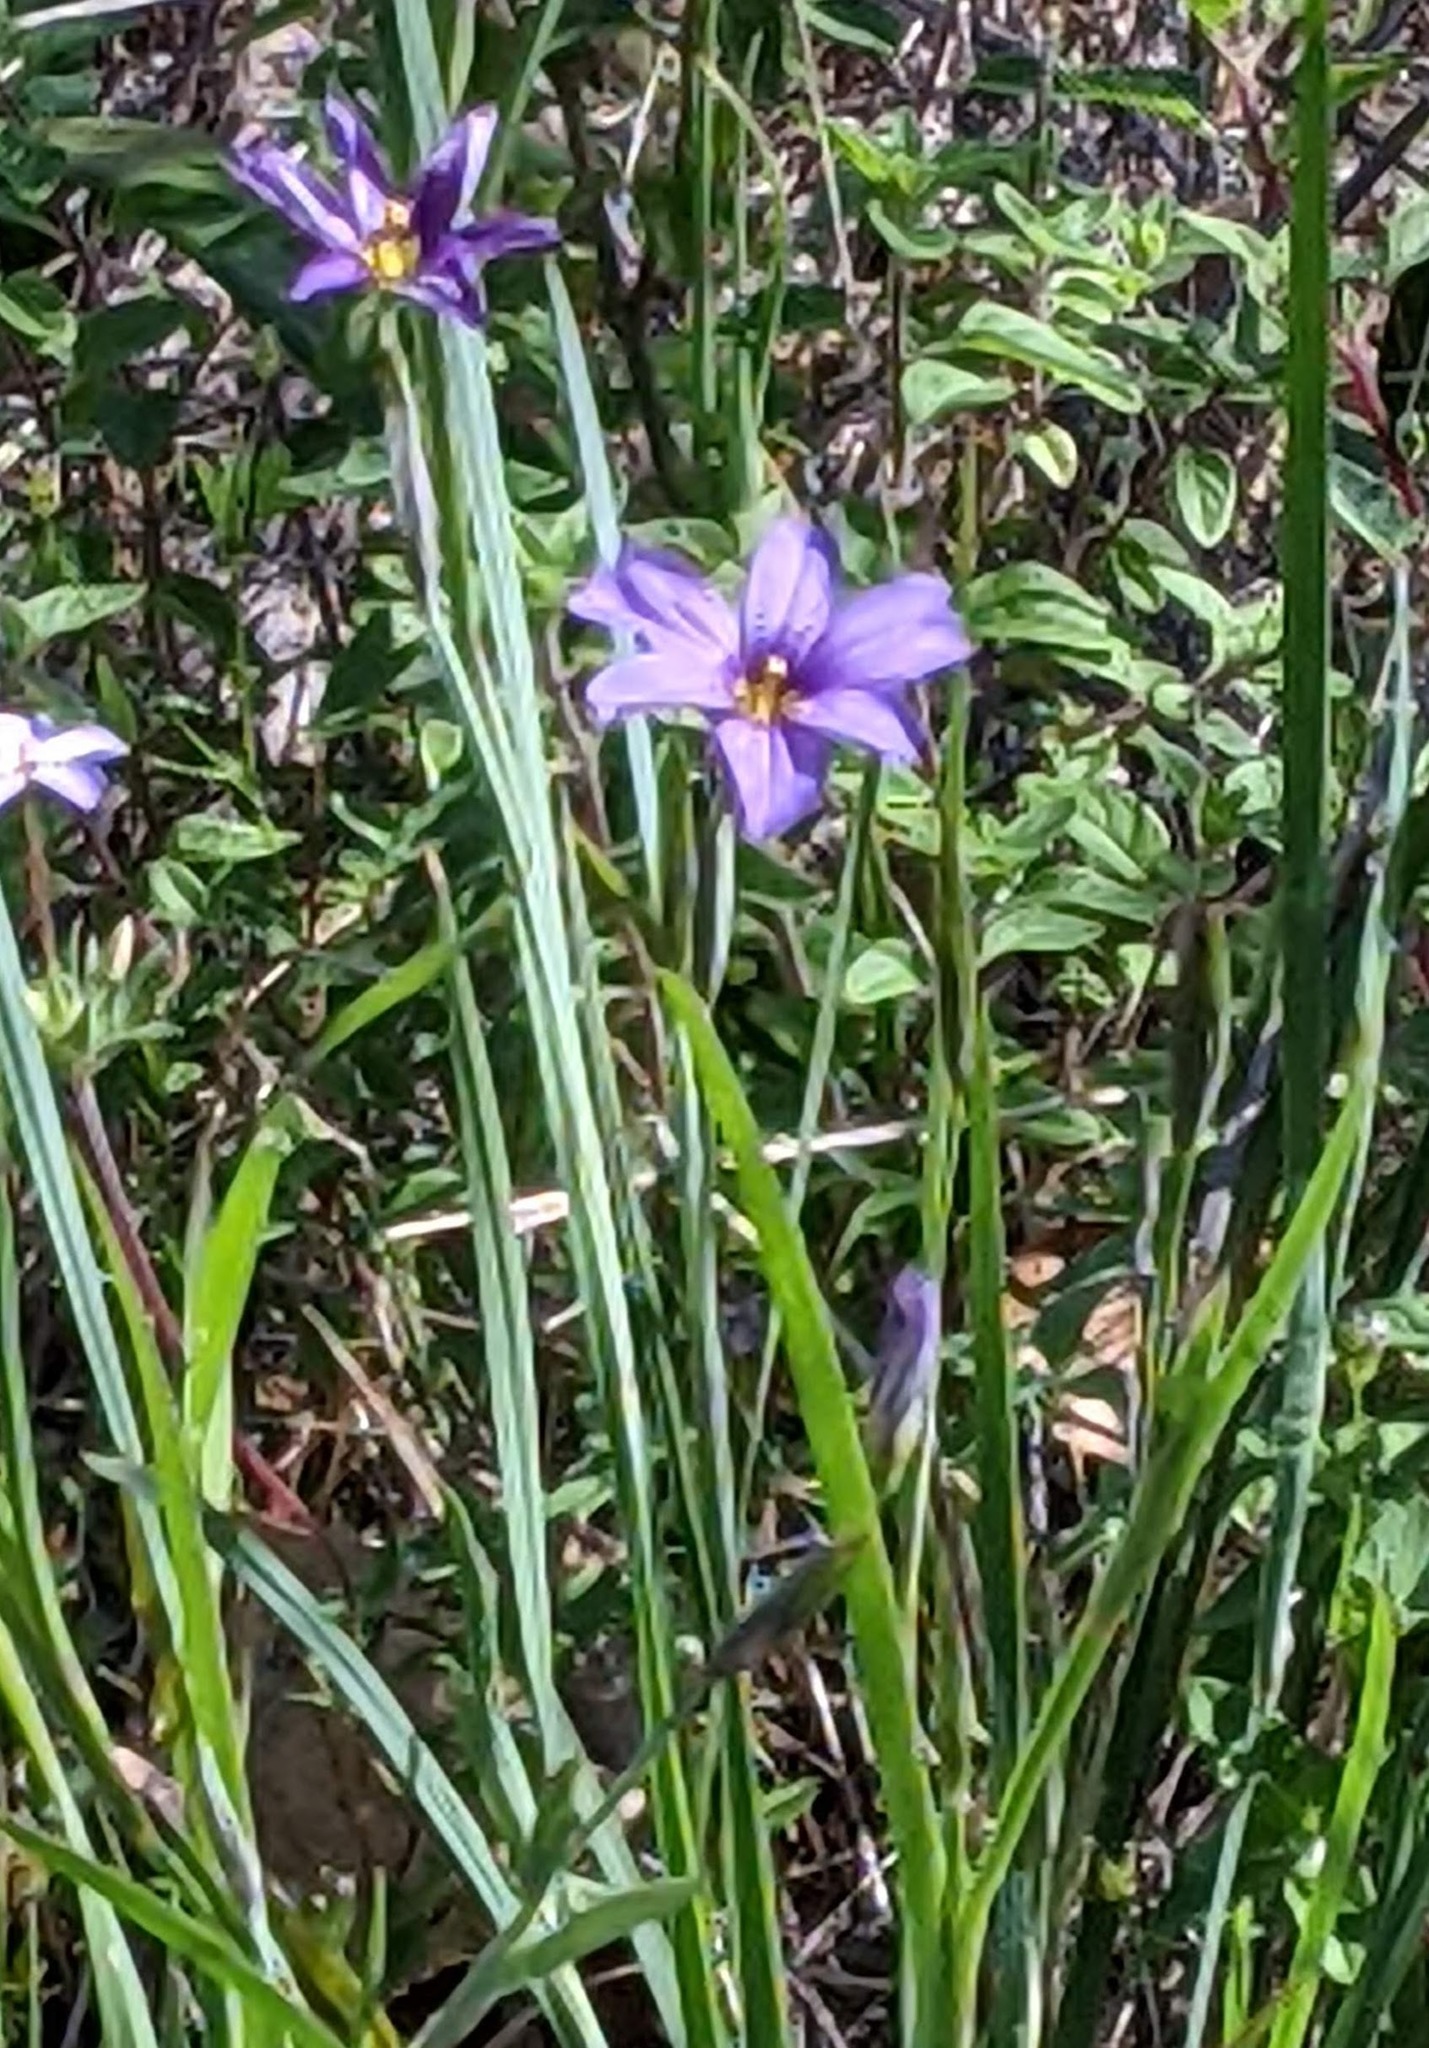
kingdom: Plantae
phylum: Tracheophyta
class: Liliopsida
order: Asparagales
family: Iridaceae
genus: Sisyrinchium
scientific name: Sisyrinchium bellum
